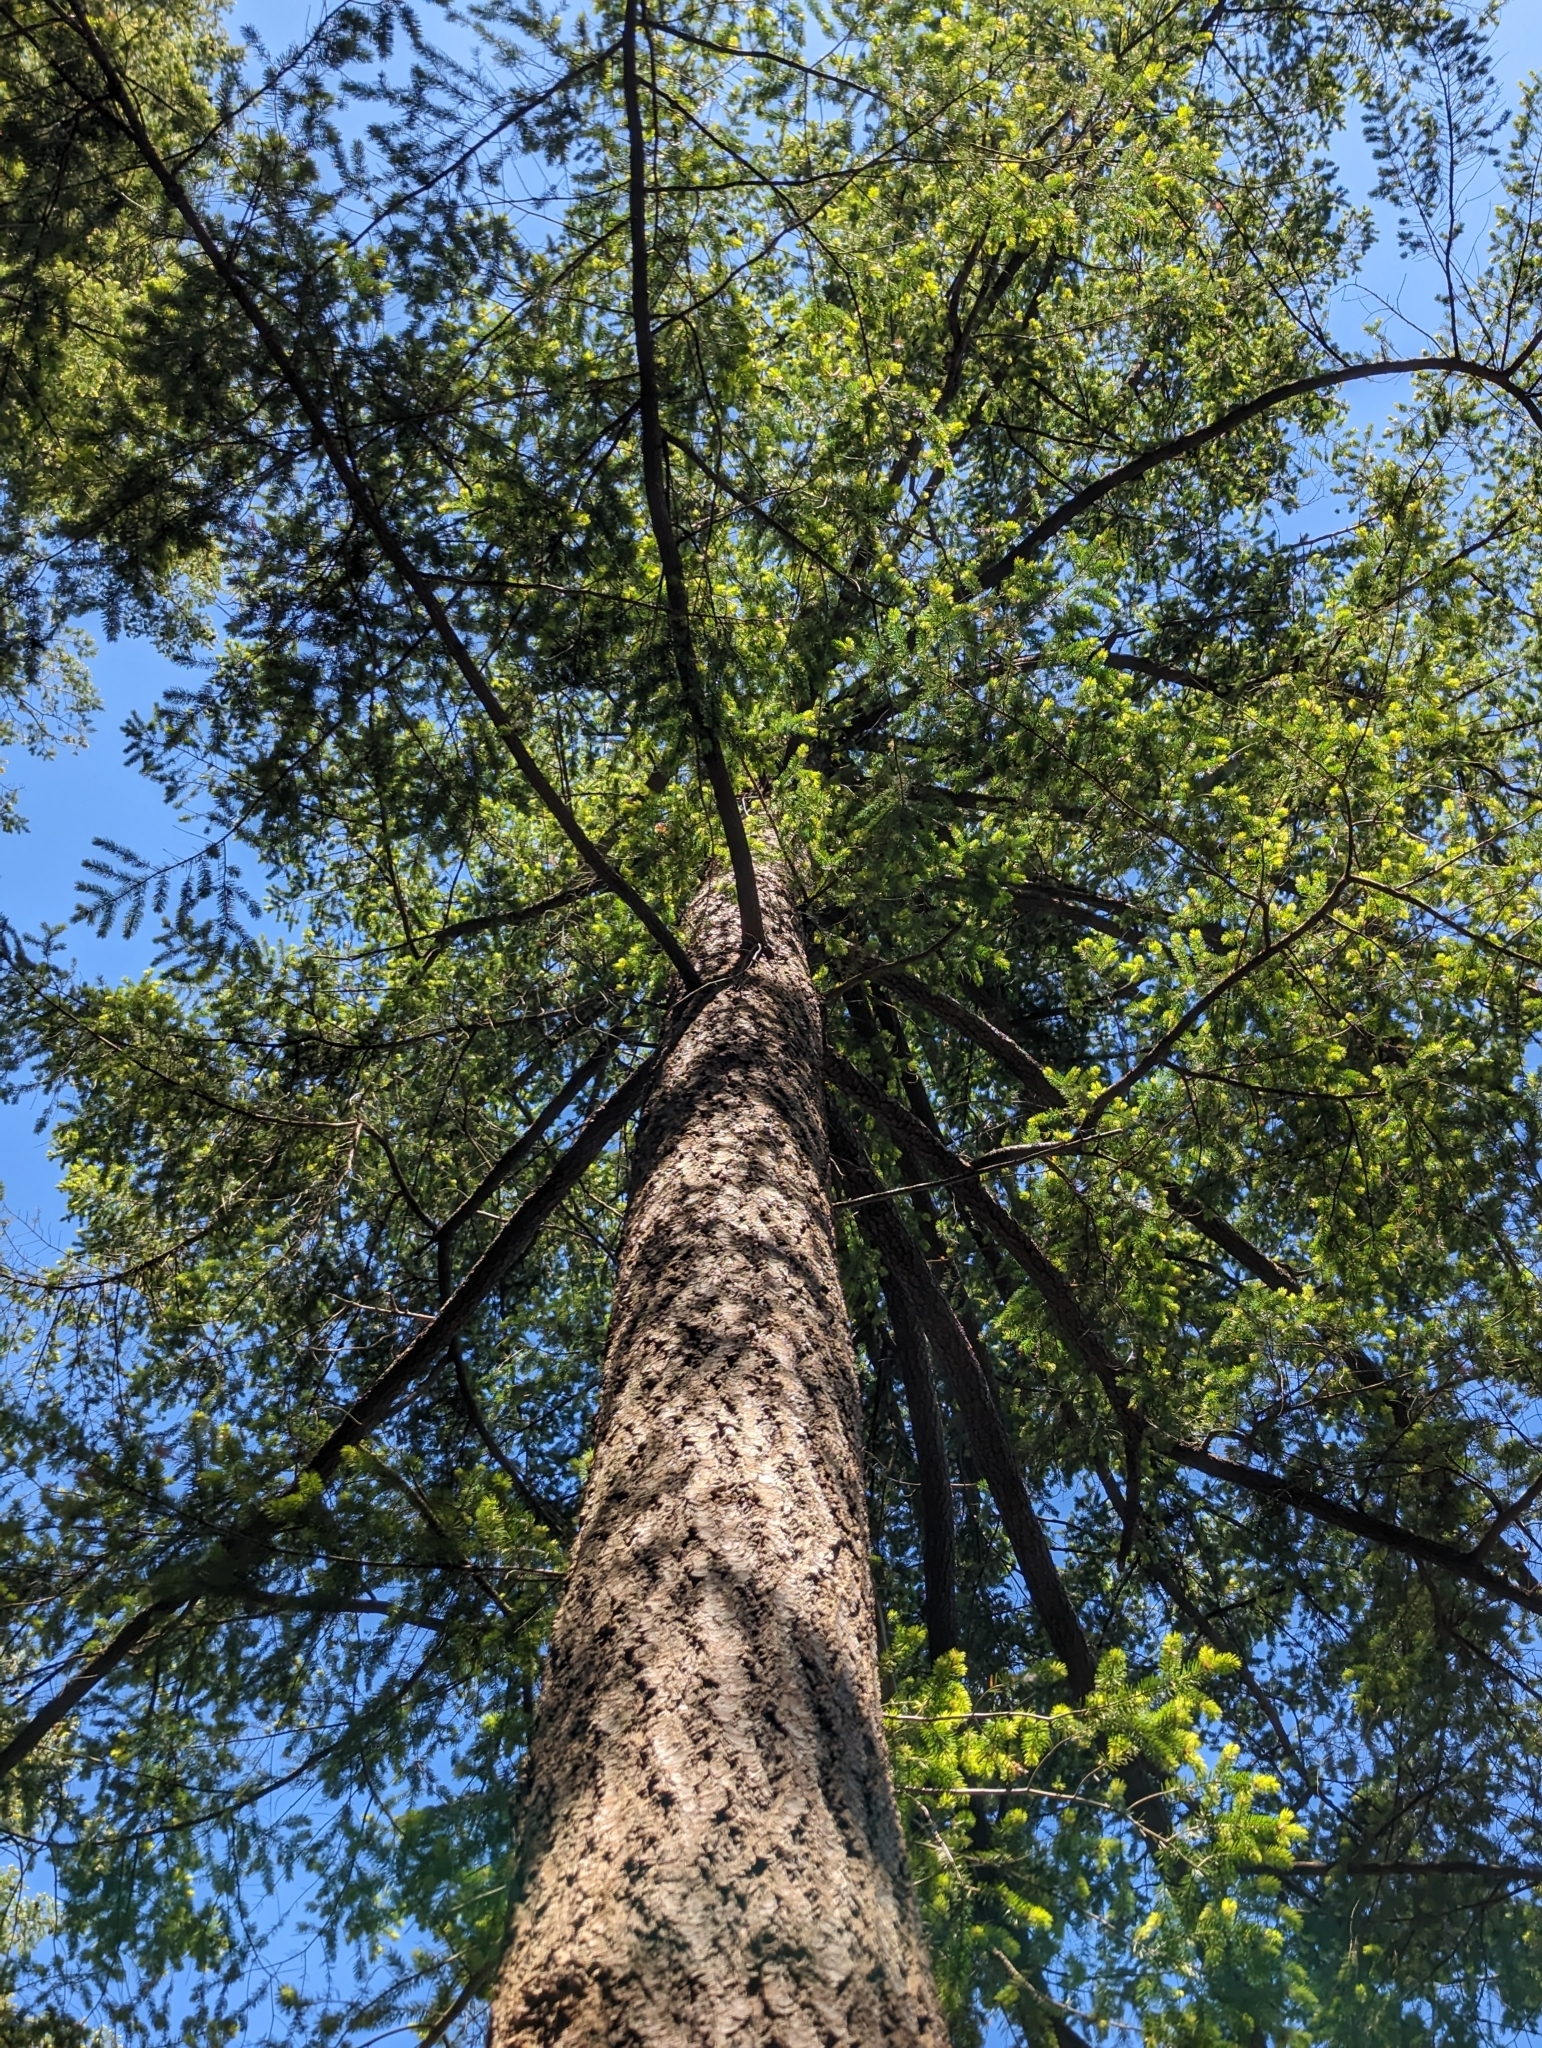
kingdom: Plantae
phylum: Tracheophyta
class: Pinopsida
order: Pinales
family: Pinaceae
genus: Pseudotsuga
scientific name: Pseudotsuga menziesii
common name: Douglas fir
